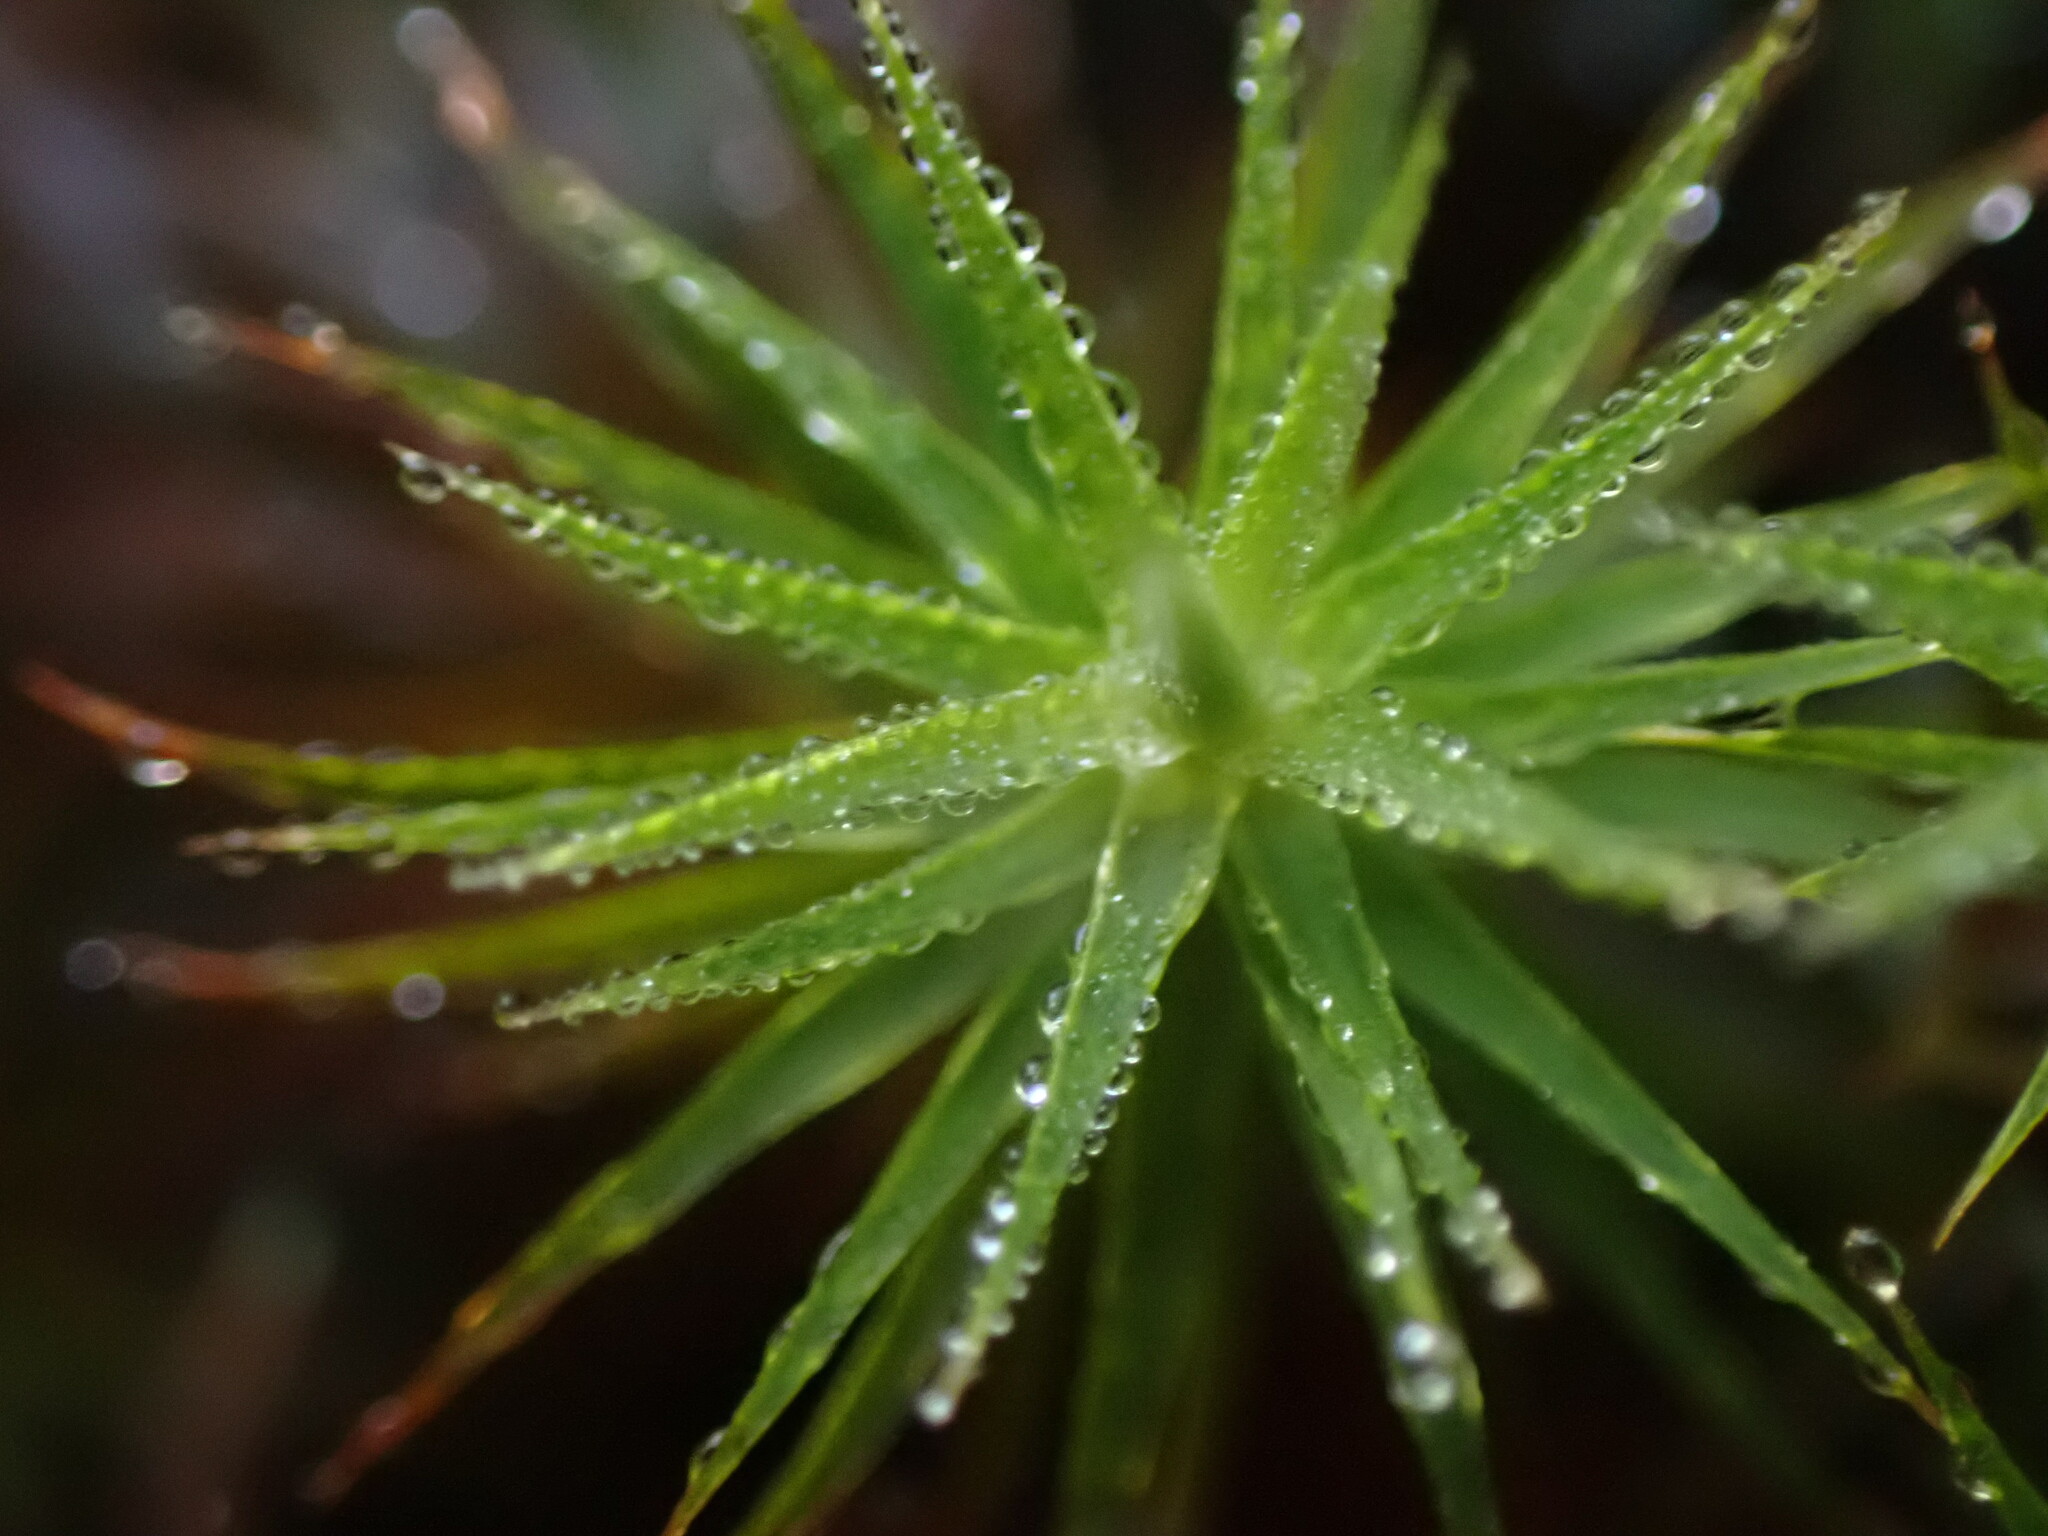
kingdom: Plantae
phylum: Bryophyta
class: Polytrichopsida
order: Polytrichales
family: Polytrichaceae
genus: Polytrichum
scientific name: Polytrichum commune
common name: Common haircap
